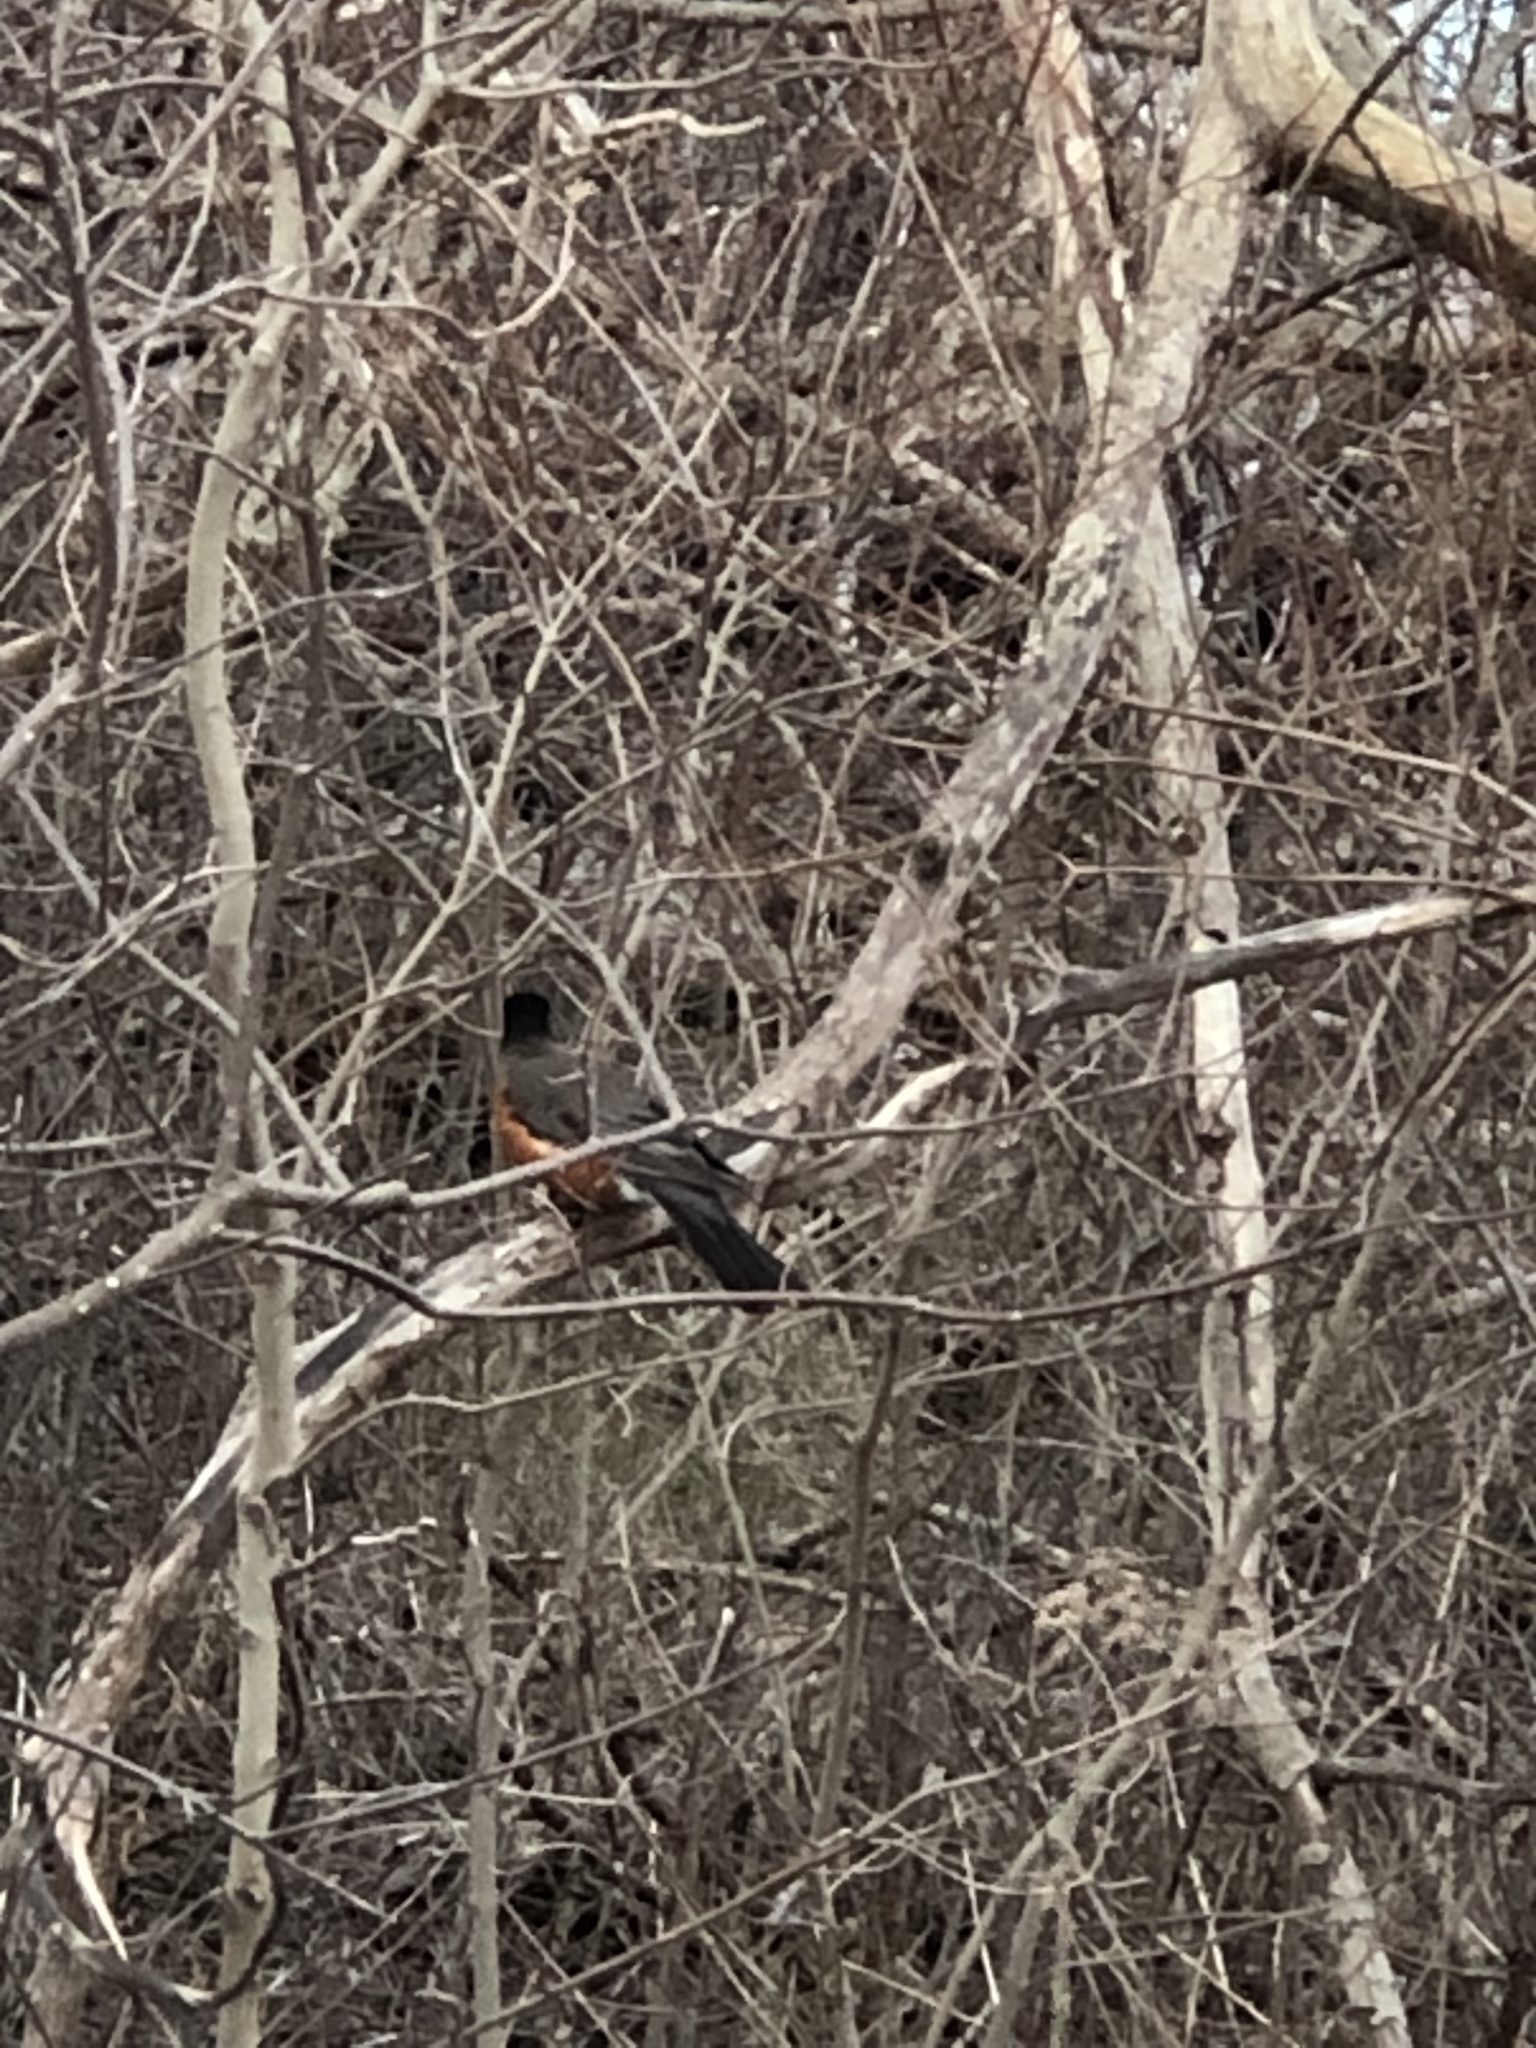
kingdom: Animalia
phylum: Chordata
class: Aves
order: Passeriformes
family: Turdidae
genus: Turdus
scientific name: Turdus migratorius
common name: American robin
